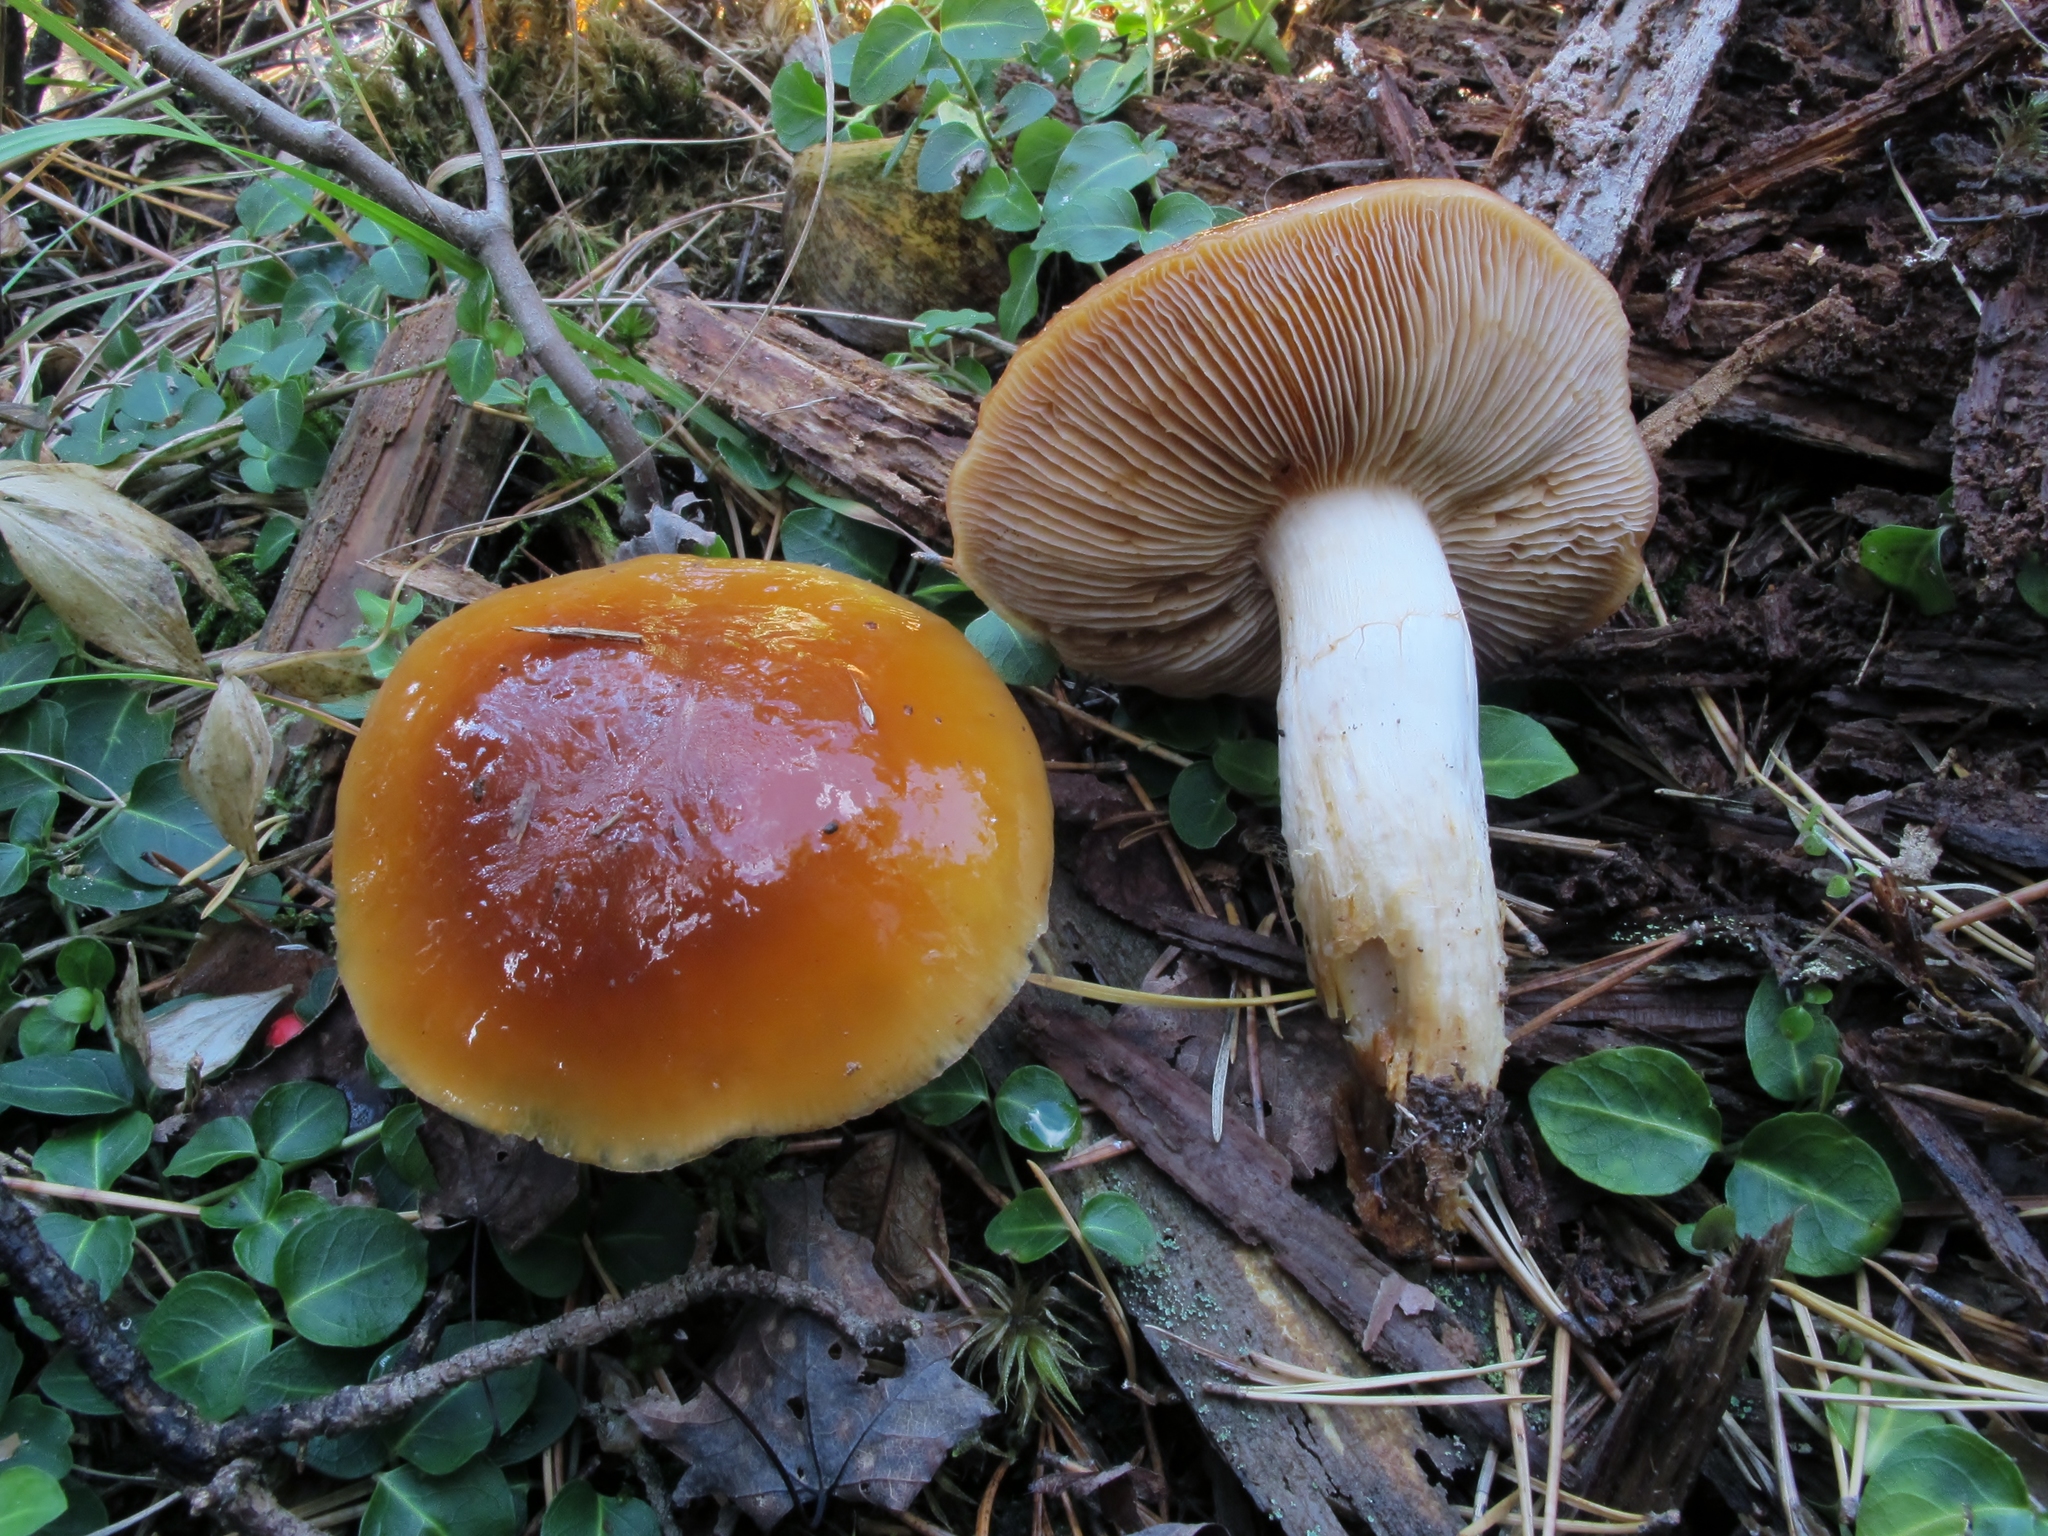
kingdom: Fungi
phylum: Basidiomycota
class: Agaricomycetes
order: Agaricales
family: Cortinariaceae
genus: Cortinarius
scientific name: Cortinarius mucosus
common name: Orange webcap
